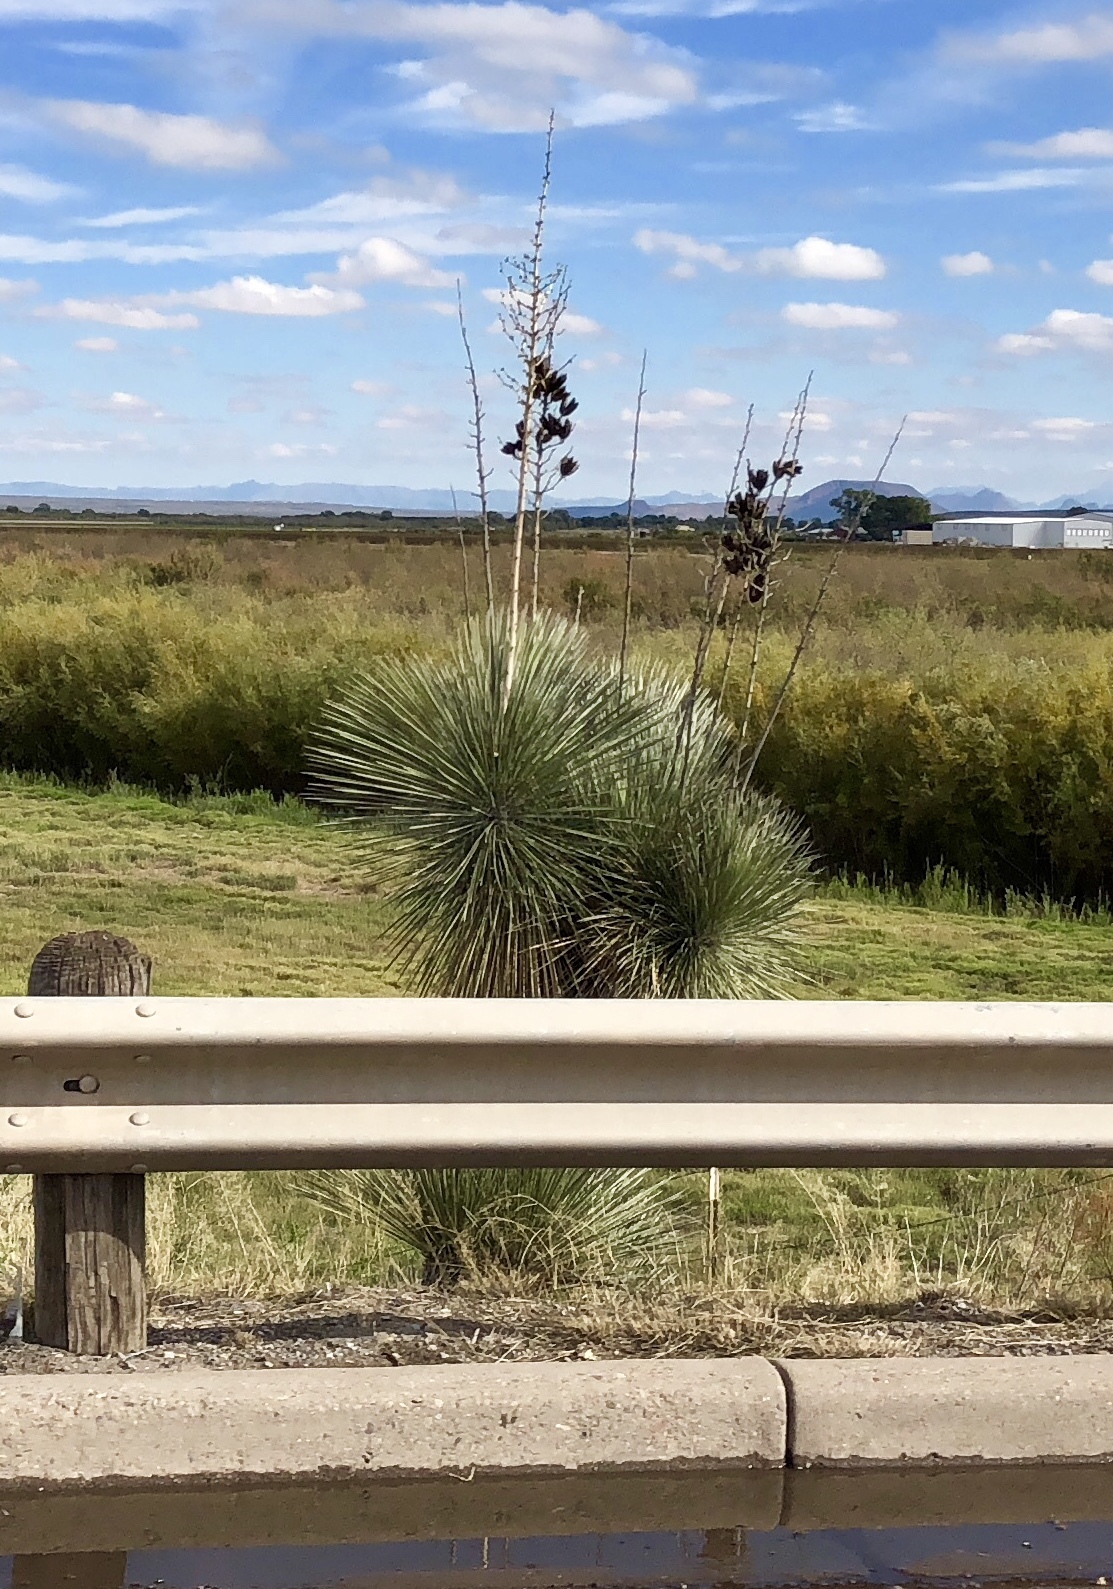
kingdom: Plantae
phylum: Tracheophyta
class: Liliopsida
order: Asparagales
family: Asparagaceae
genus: Yucca
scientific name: Yucca elata
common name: Palmella
